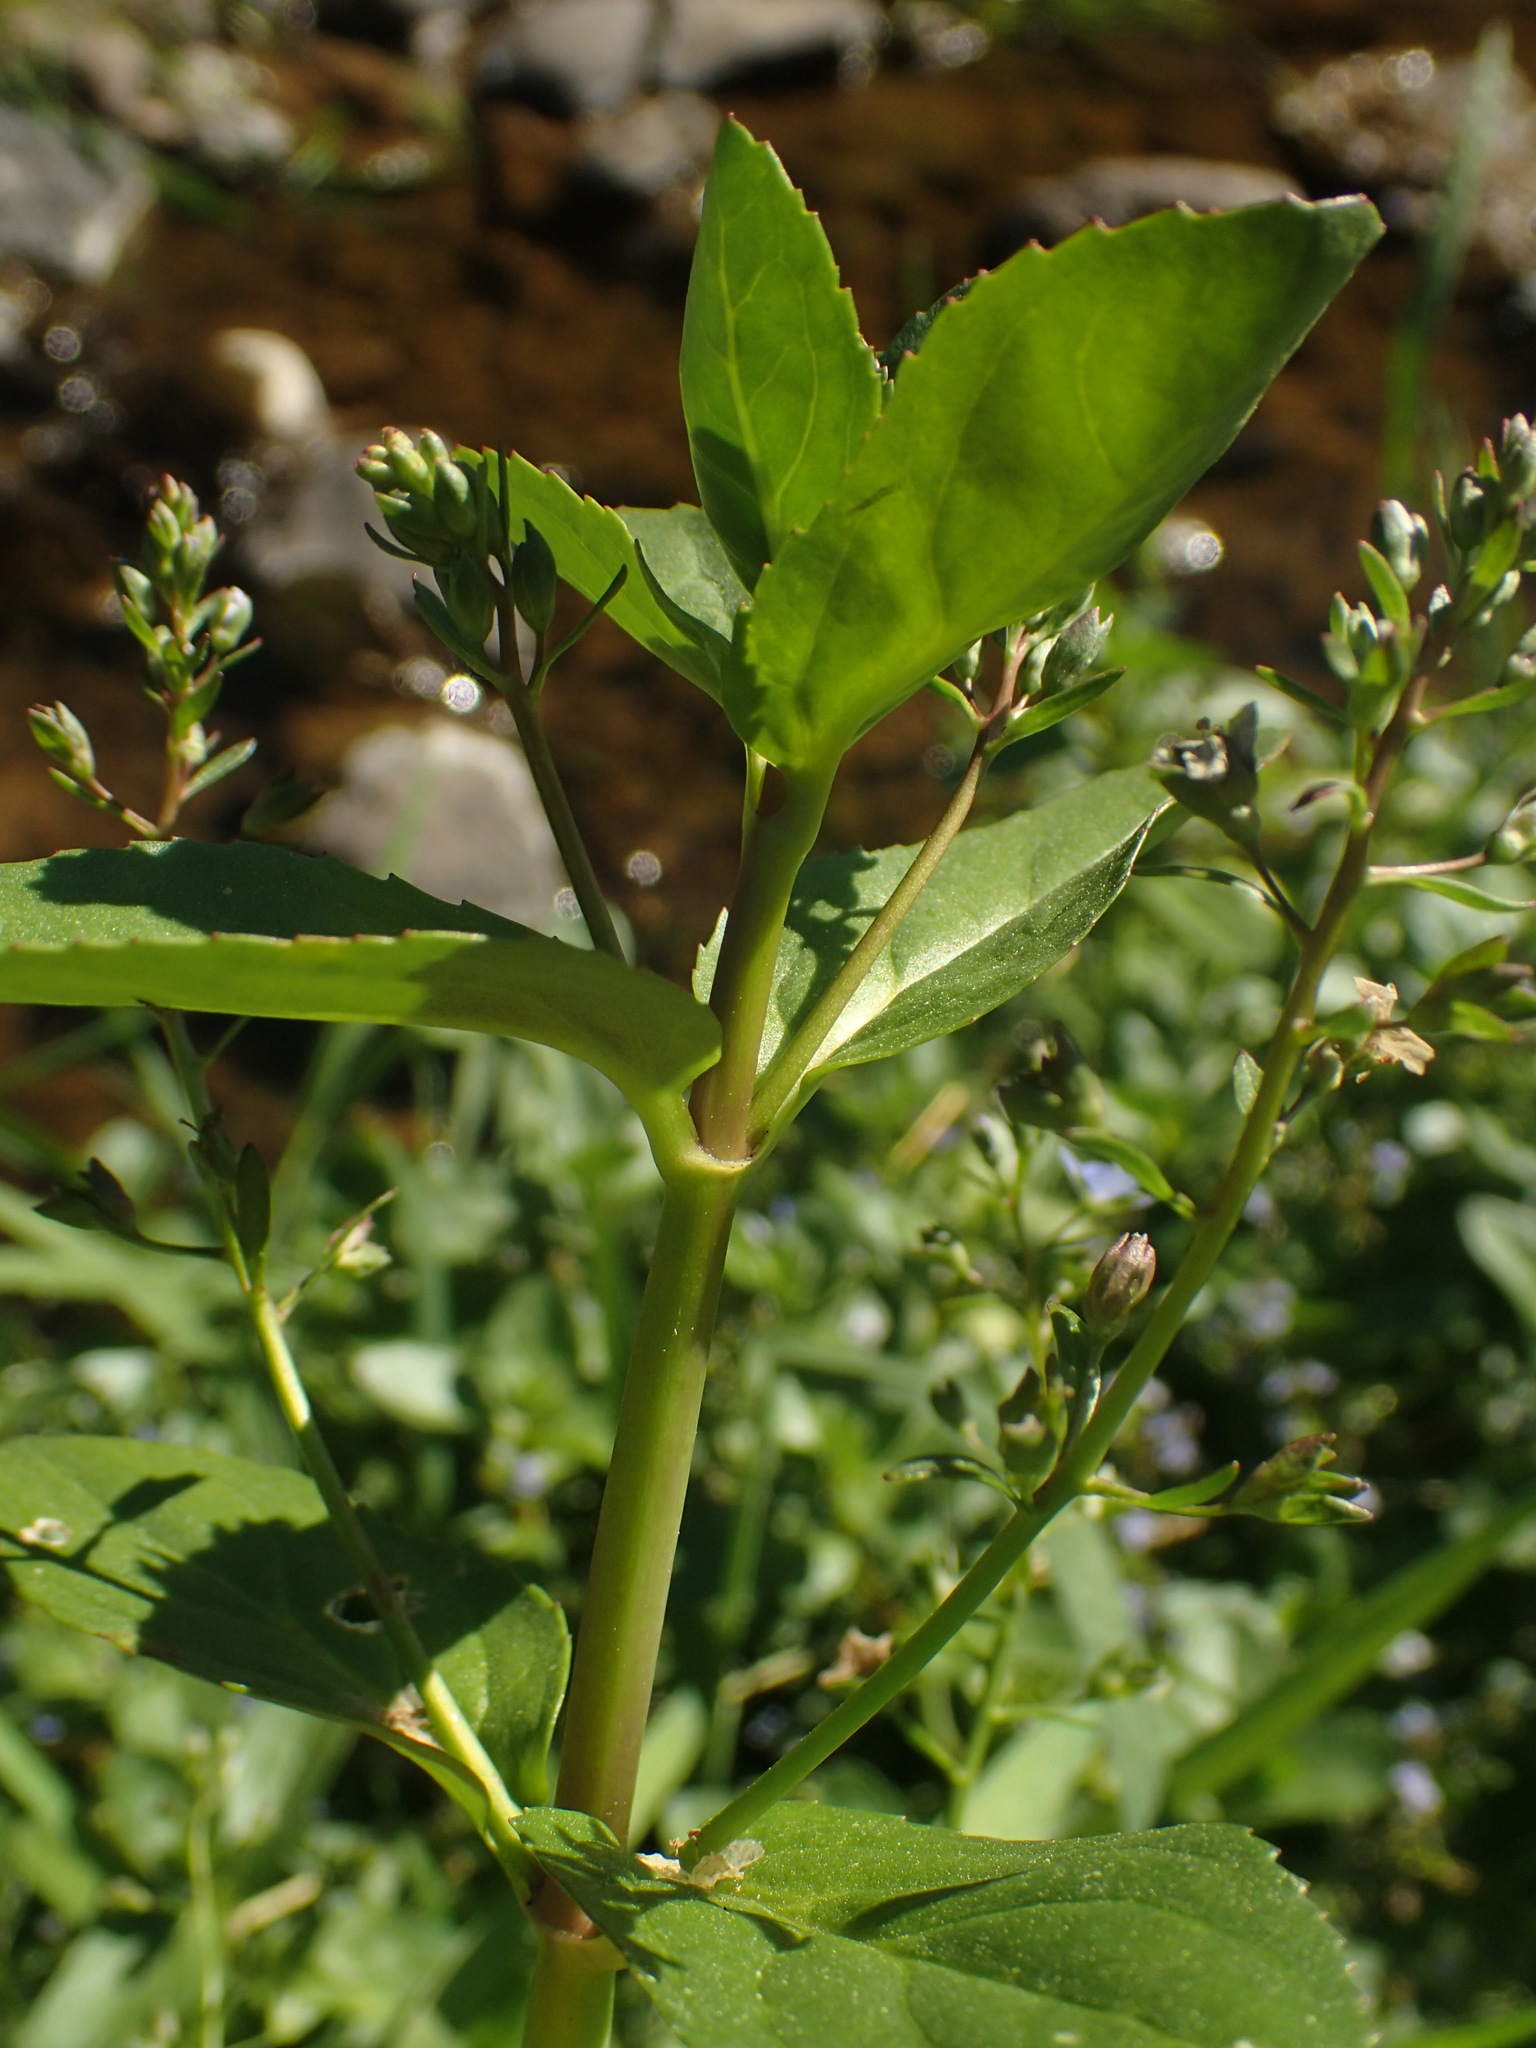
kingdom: Plantae
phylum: Tracheophyta
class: Magnoliopsida
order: Lamiales
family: Plantaginaceae
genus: Veronica
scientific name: Veronica beccabunga
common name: Brooklime
